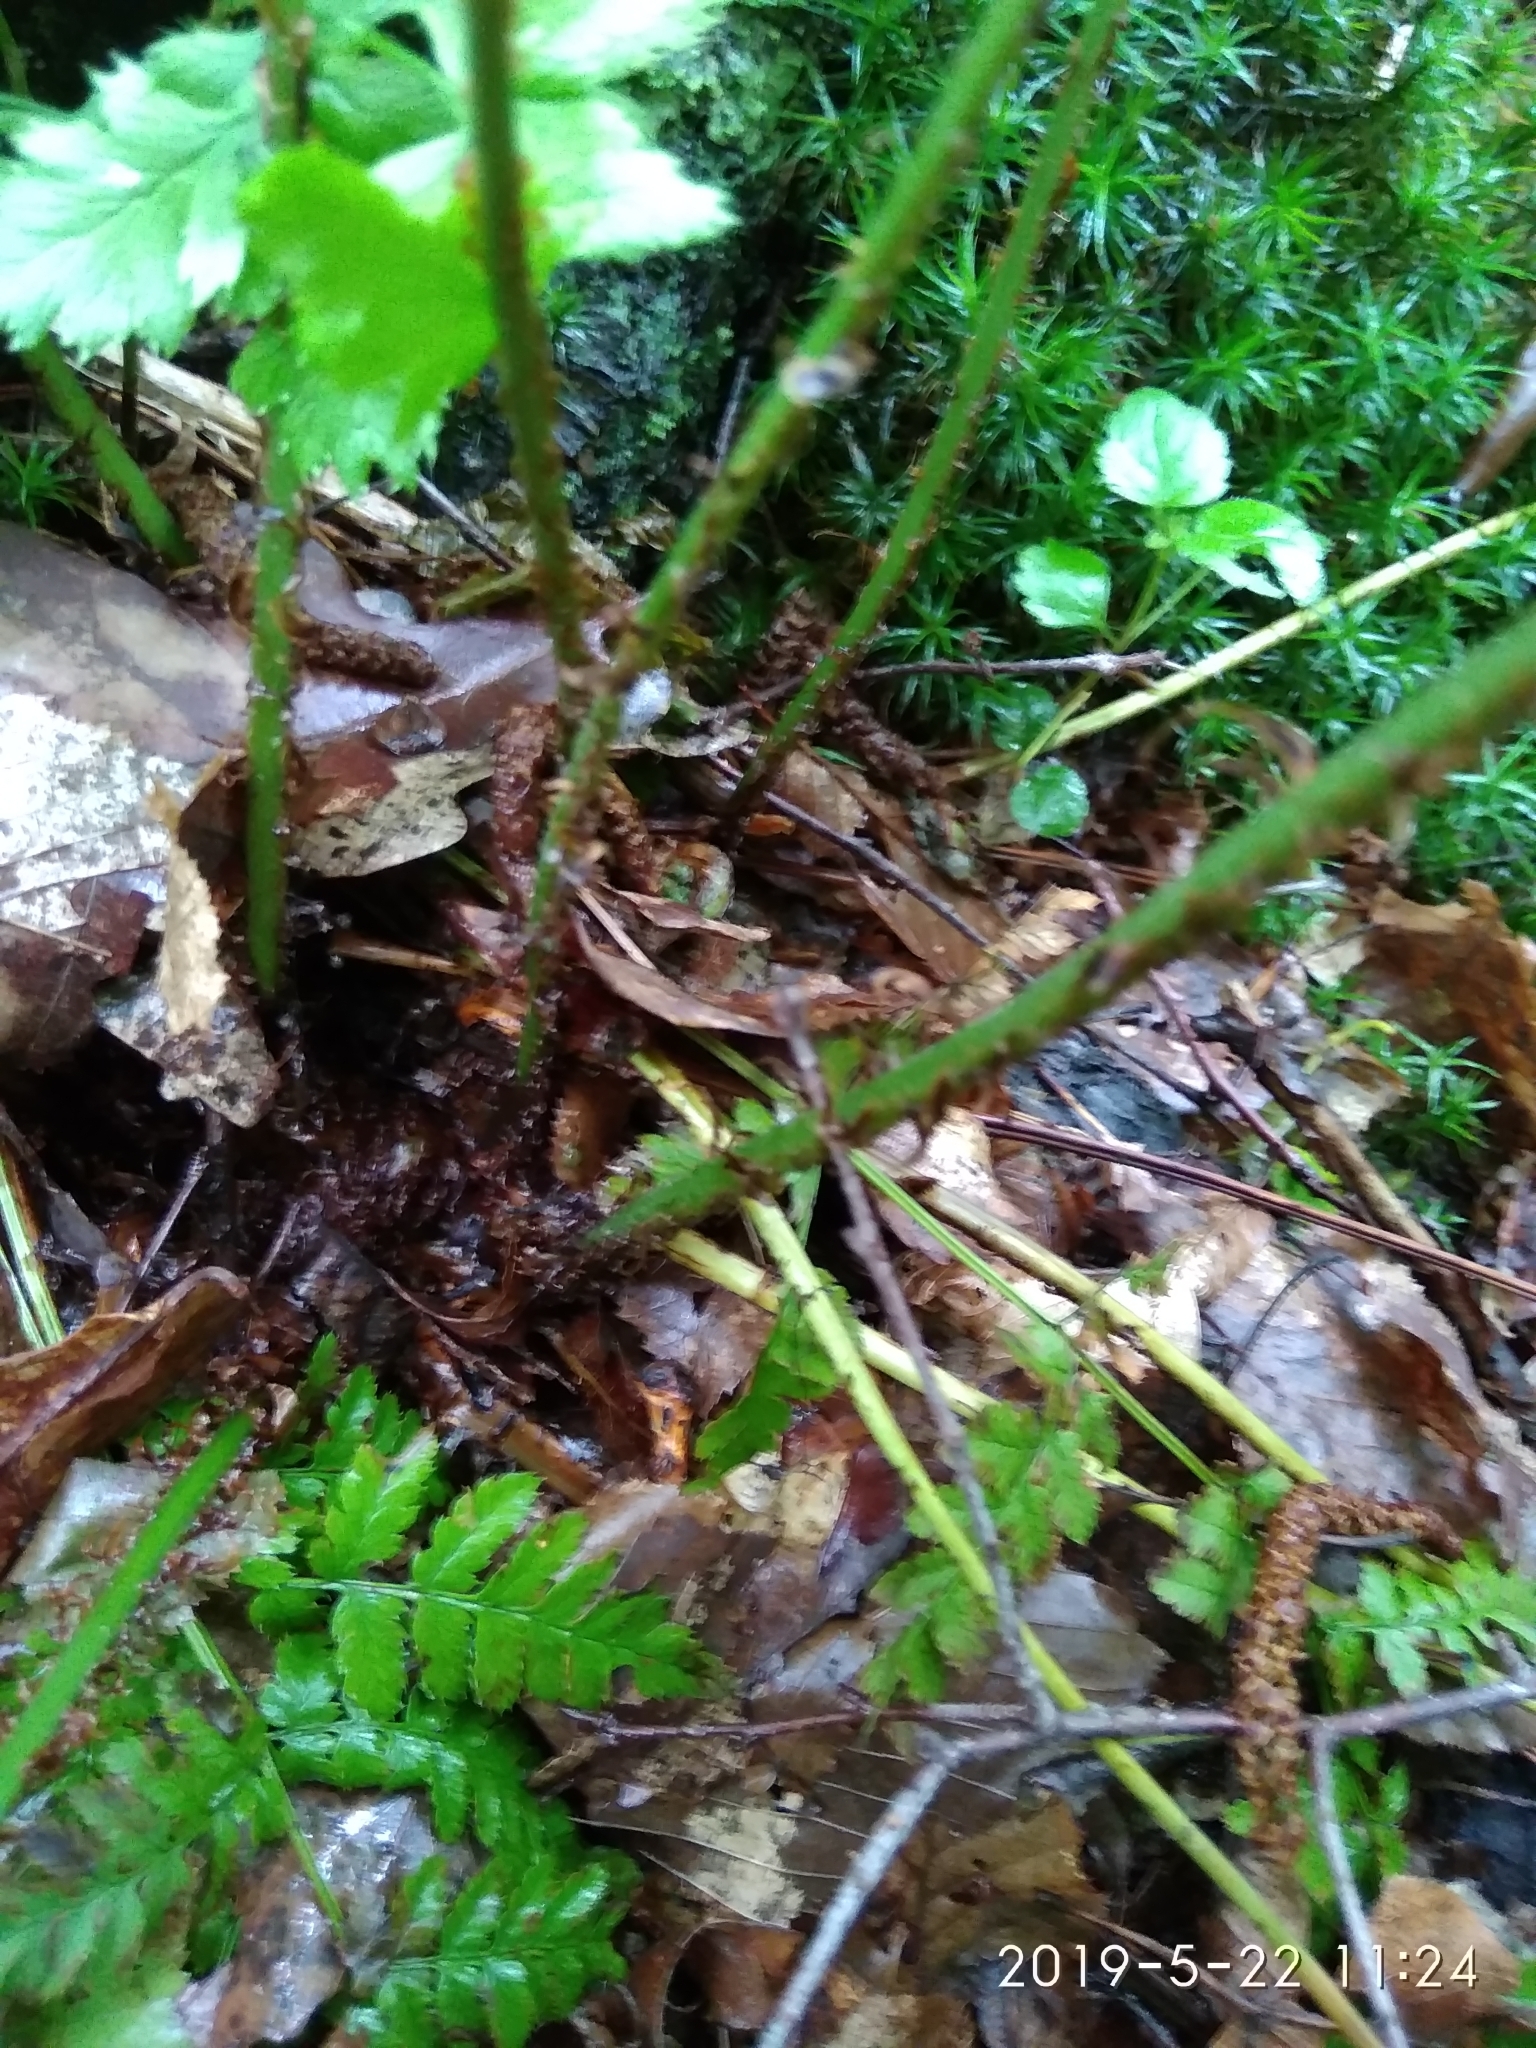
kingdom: Plantae
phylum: Tracheophyta
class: Polypodiopsida
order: Polypodiales
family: Dryopteridaceae
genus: Dryopteris
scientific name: Dryopteris dilatata
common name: Broad buckler-fern
